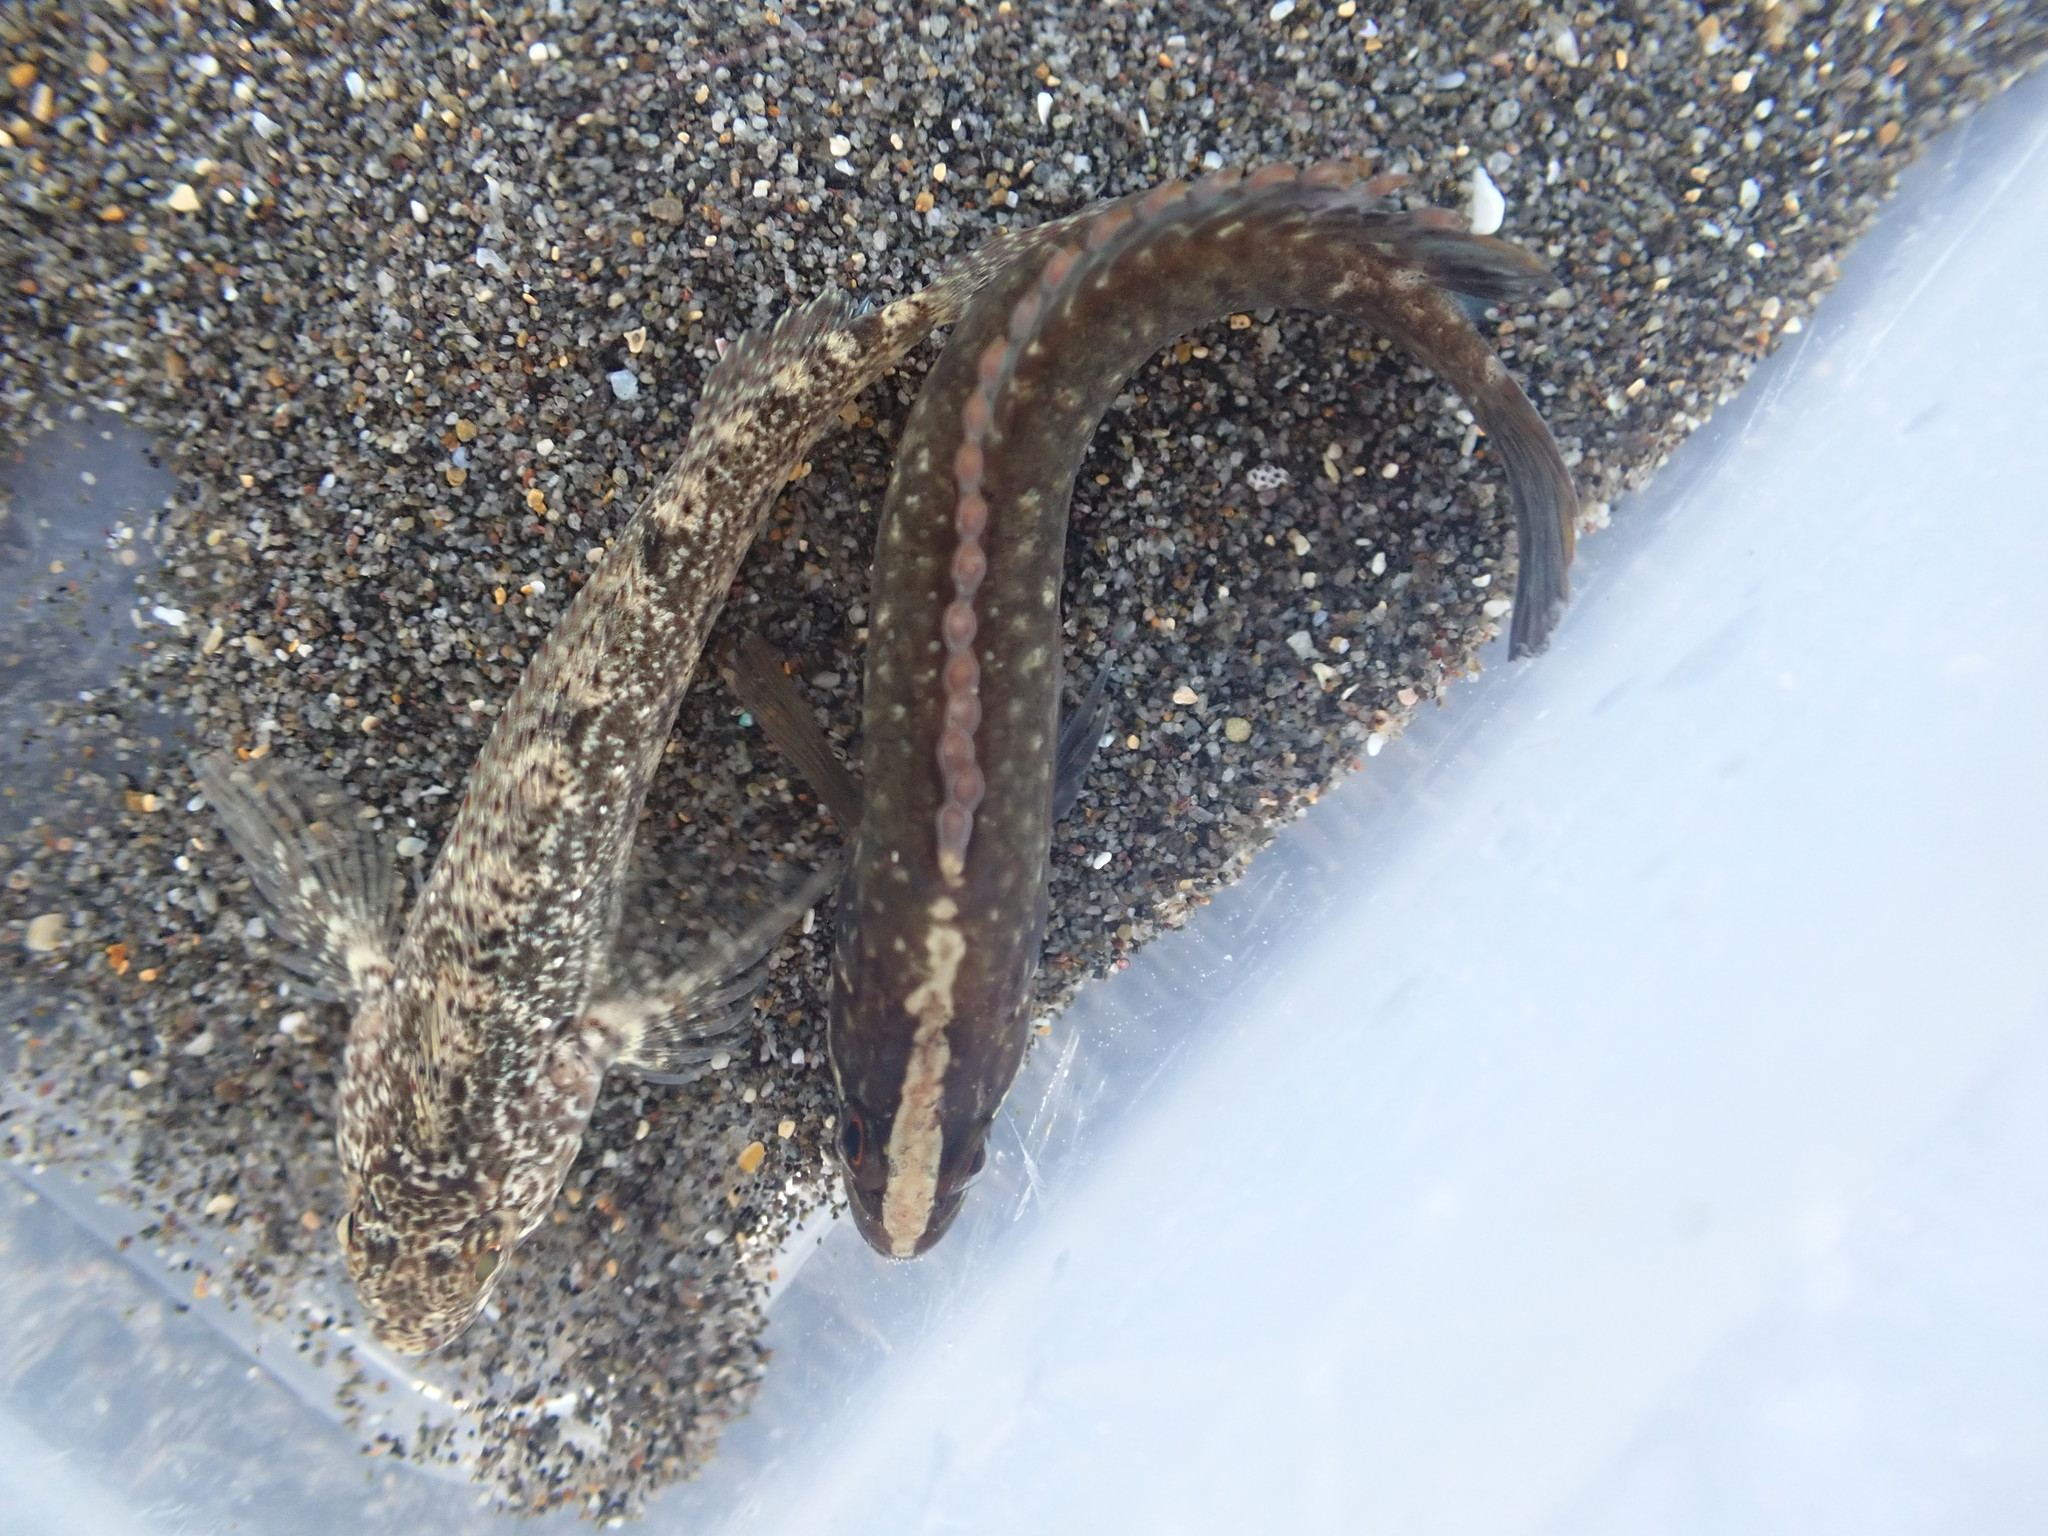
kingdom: Animalia
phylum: Chordata
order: Perciformes
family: Tripterygiidae
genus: Forsterygion
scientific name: Forsterygion gymnotum
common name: Multifid-tentacled robust triplefin
